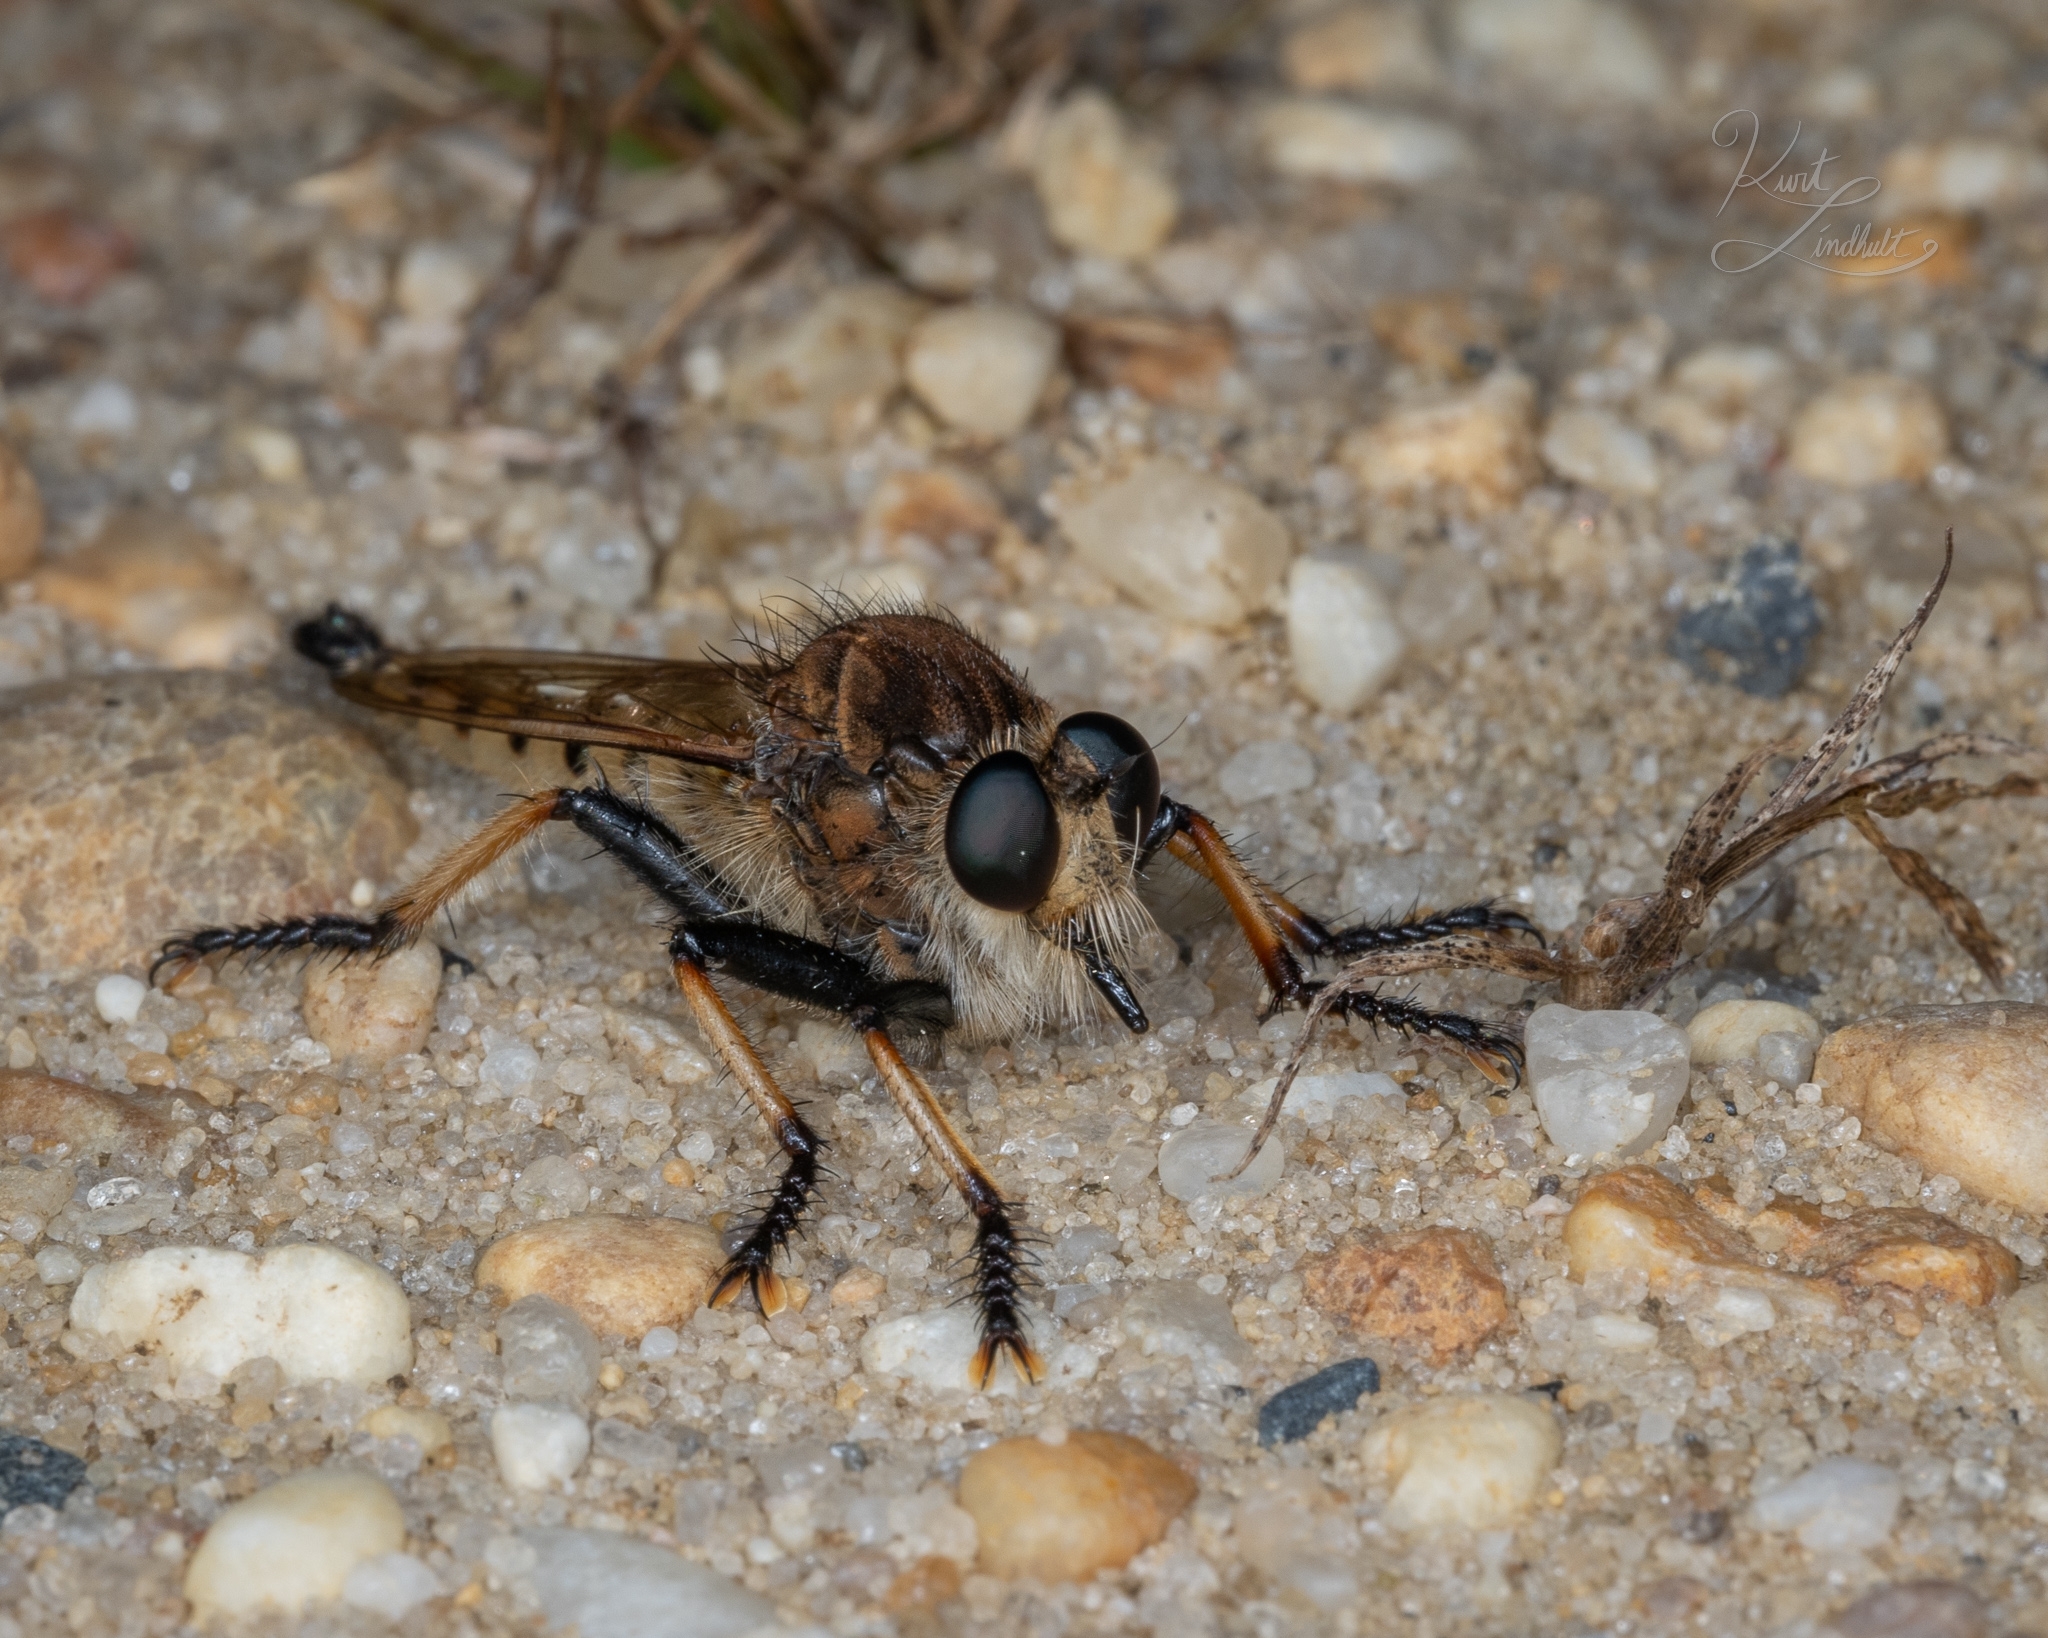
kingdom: Animalia
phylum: Arthropoda
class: Insecta
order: Diptera
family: Asilidae
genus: Promachus
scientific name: Promachus rufipes
